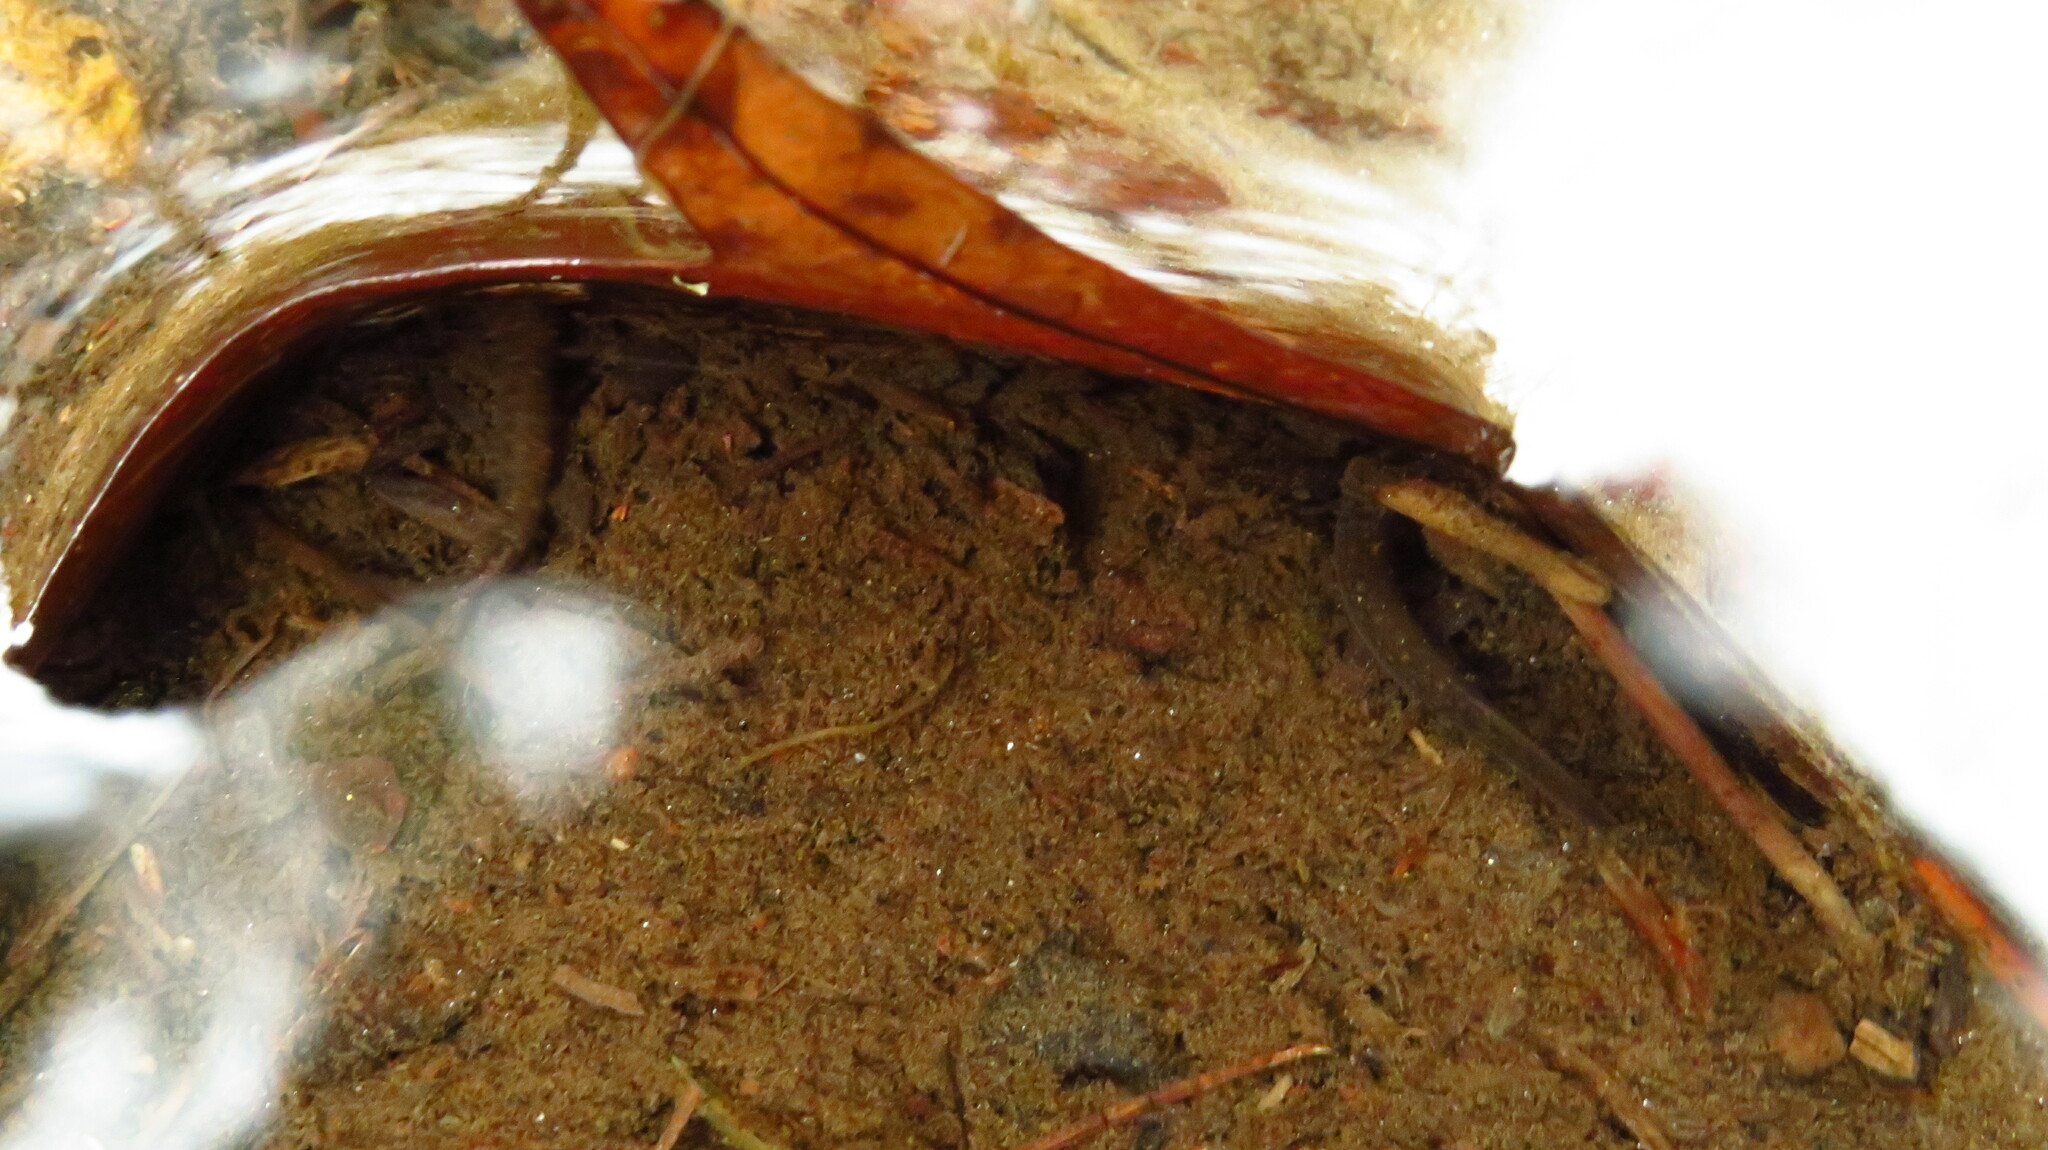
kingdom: Animalia
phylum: Chordata
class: Amphibia
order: Caudata
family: Plethodontidae
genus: Eurycea
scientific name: Eurycea bislineata
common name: Northern two-lined salamander
